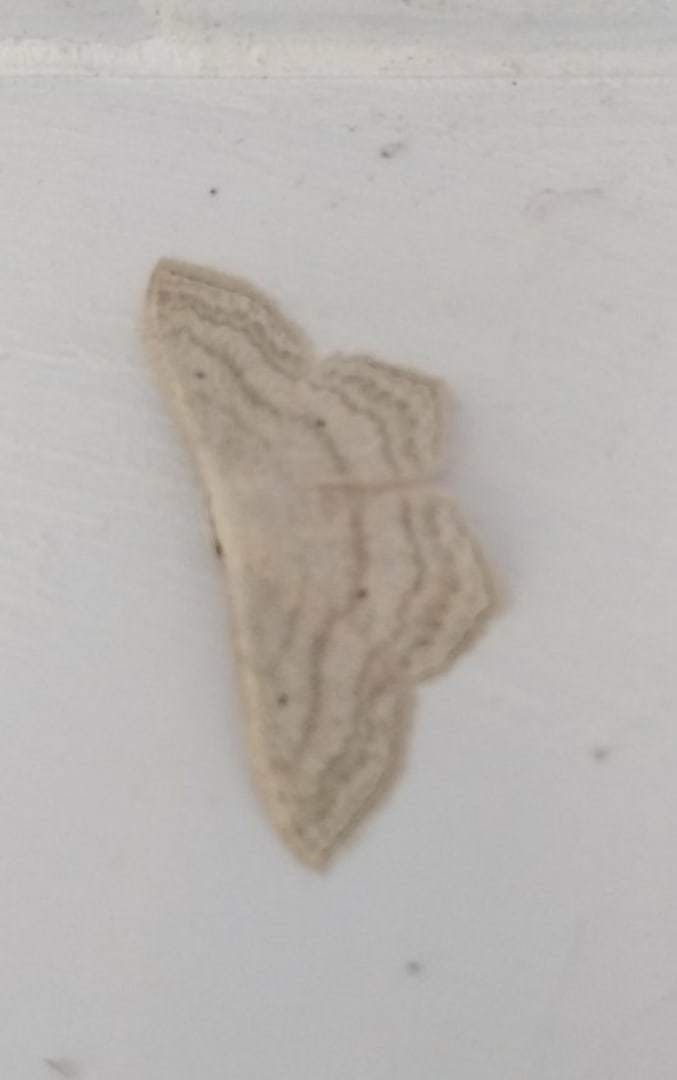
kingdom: Animalia
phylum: Arthropoda
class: Insecta
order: Lepidoptera
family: Geometridae
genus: Scopula
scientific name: Scopula nigropunctata
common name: Sub-angled wave
